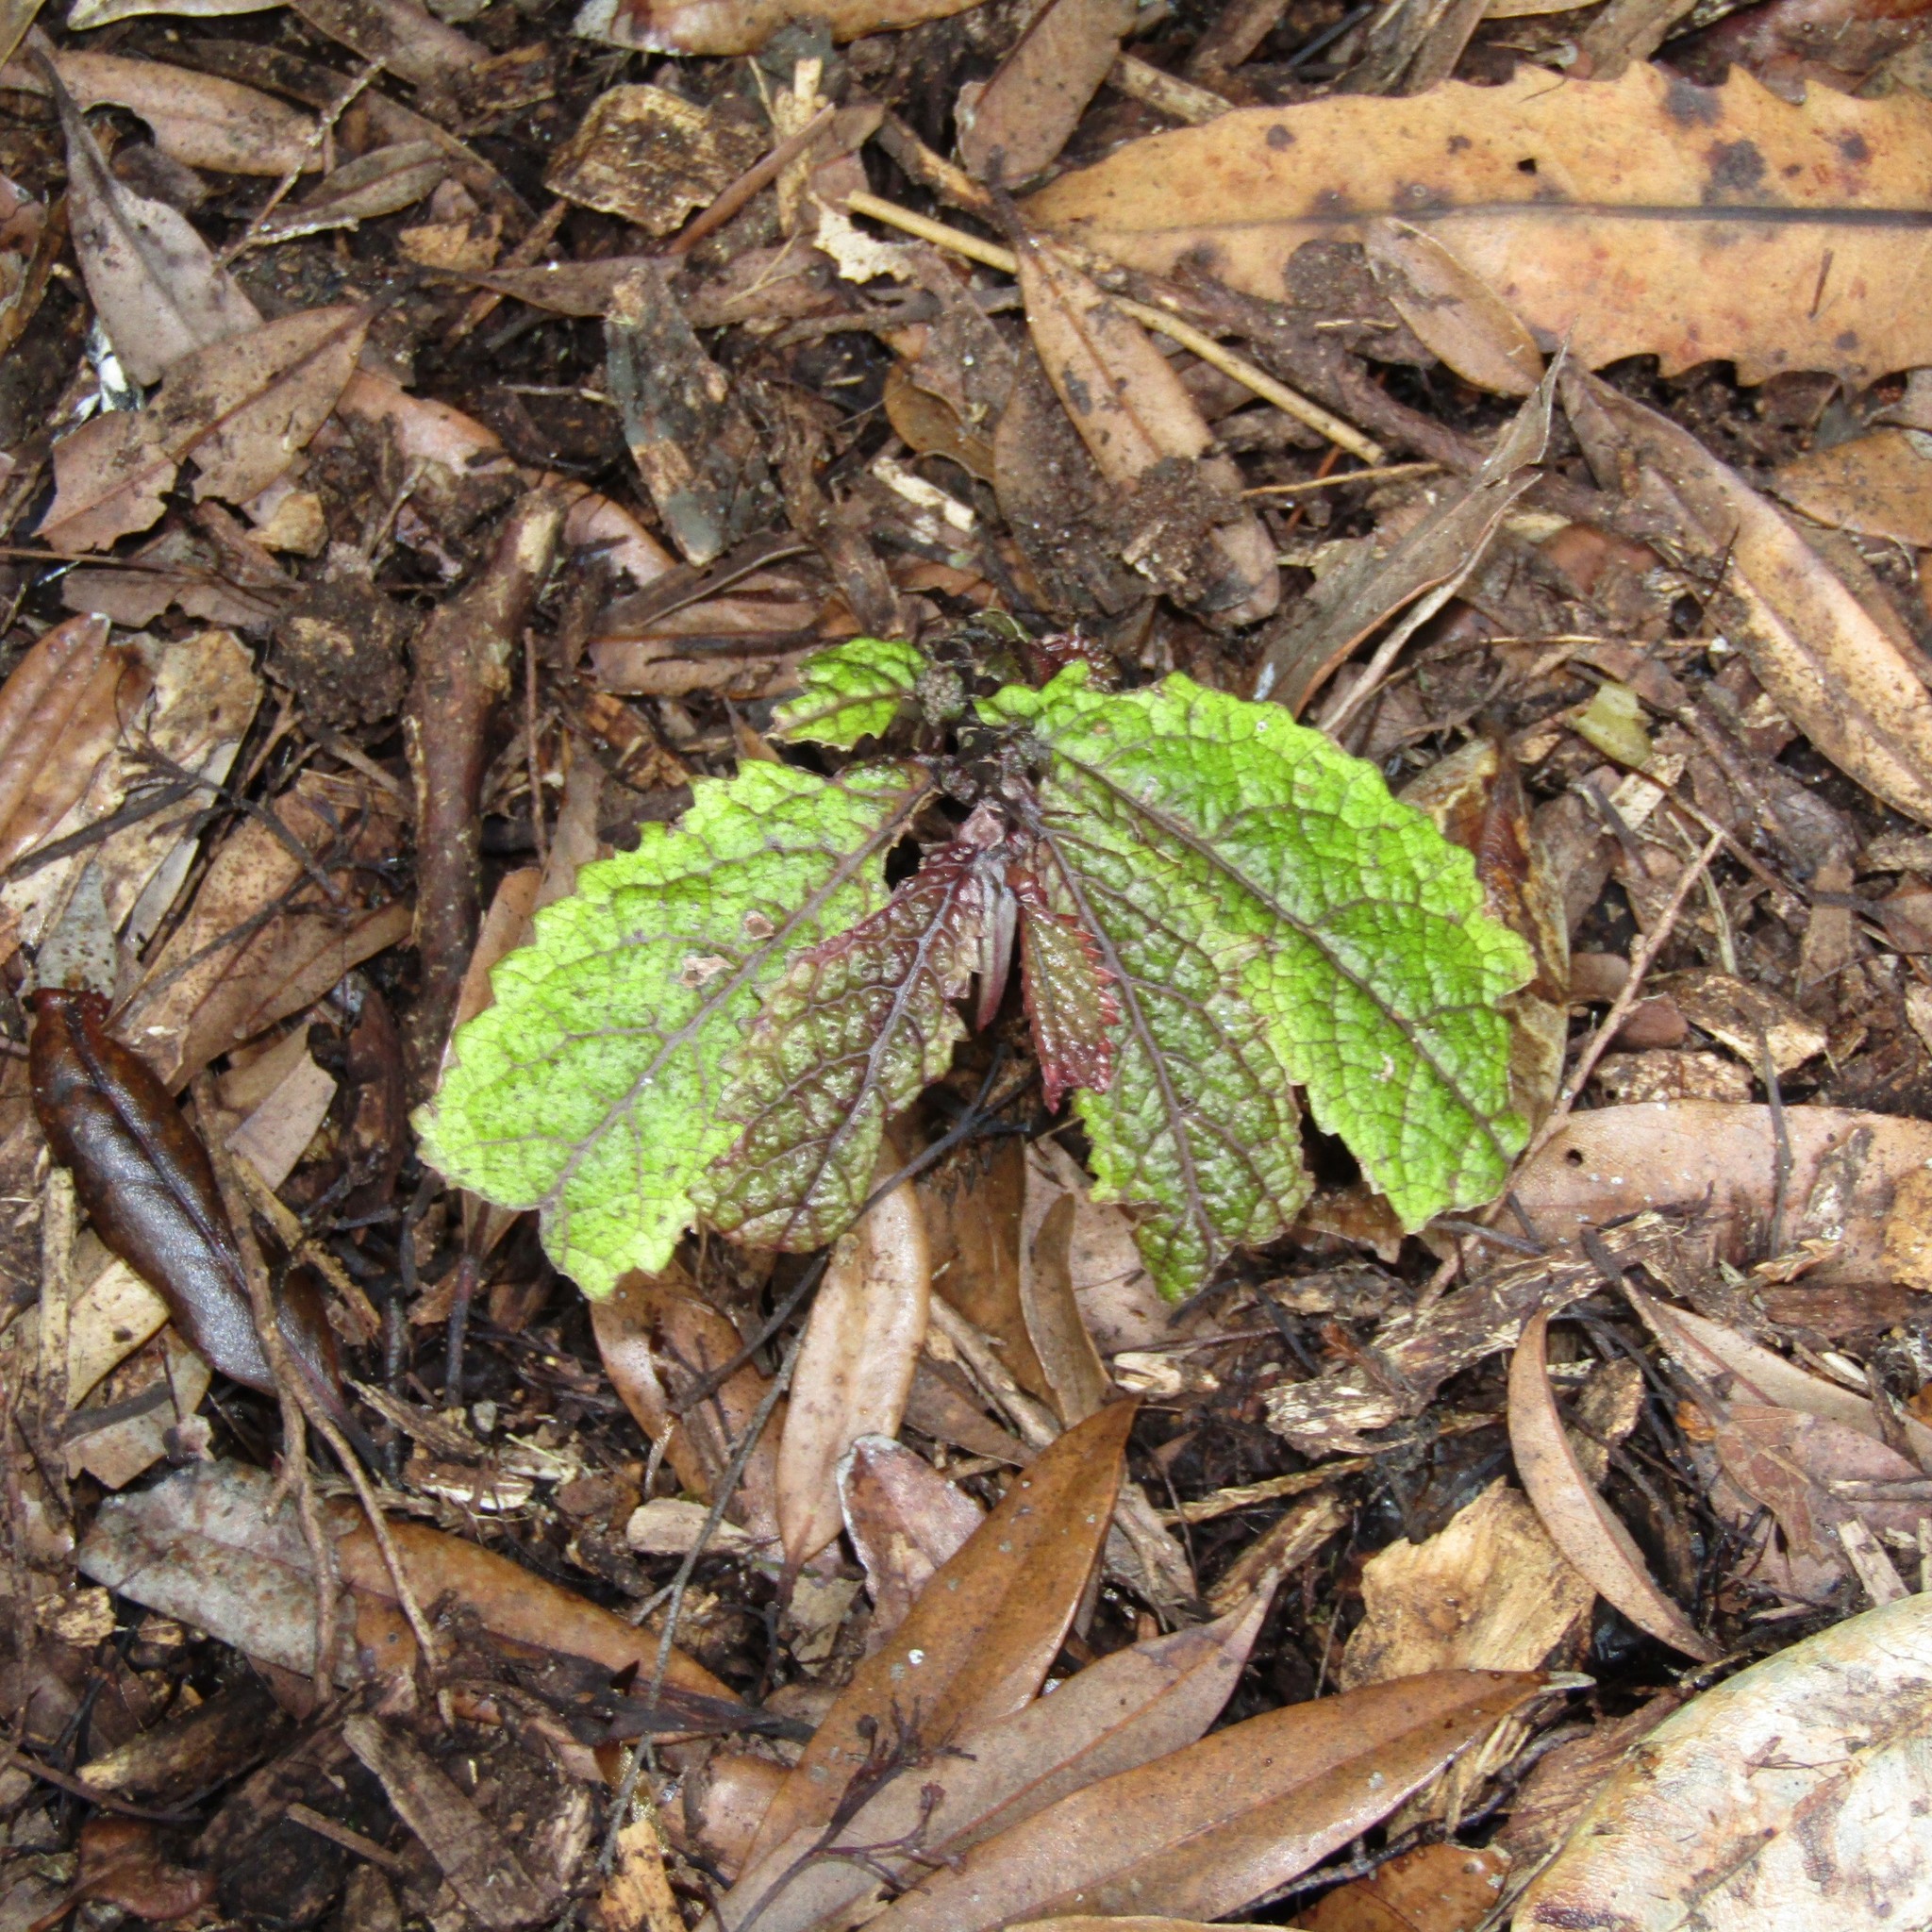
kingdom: Plantae
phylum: Tracheophyta
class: Magnoliopsida
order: Rosales
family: Urticaceae
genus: Elatostema
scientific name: Elatostema rugosum
